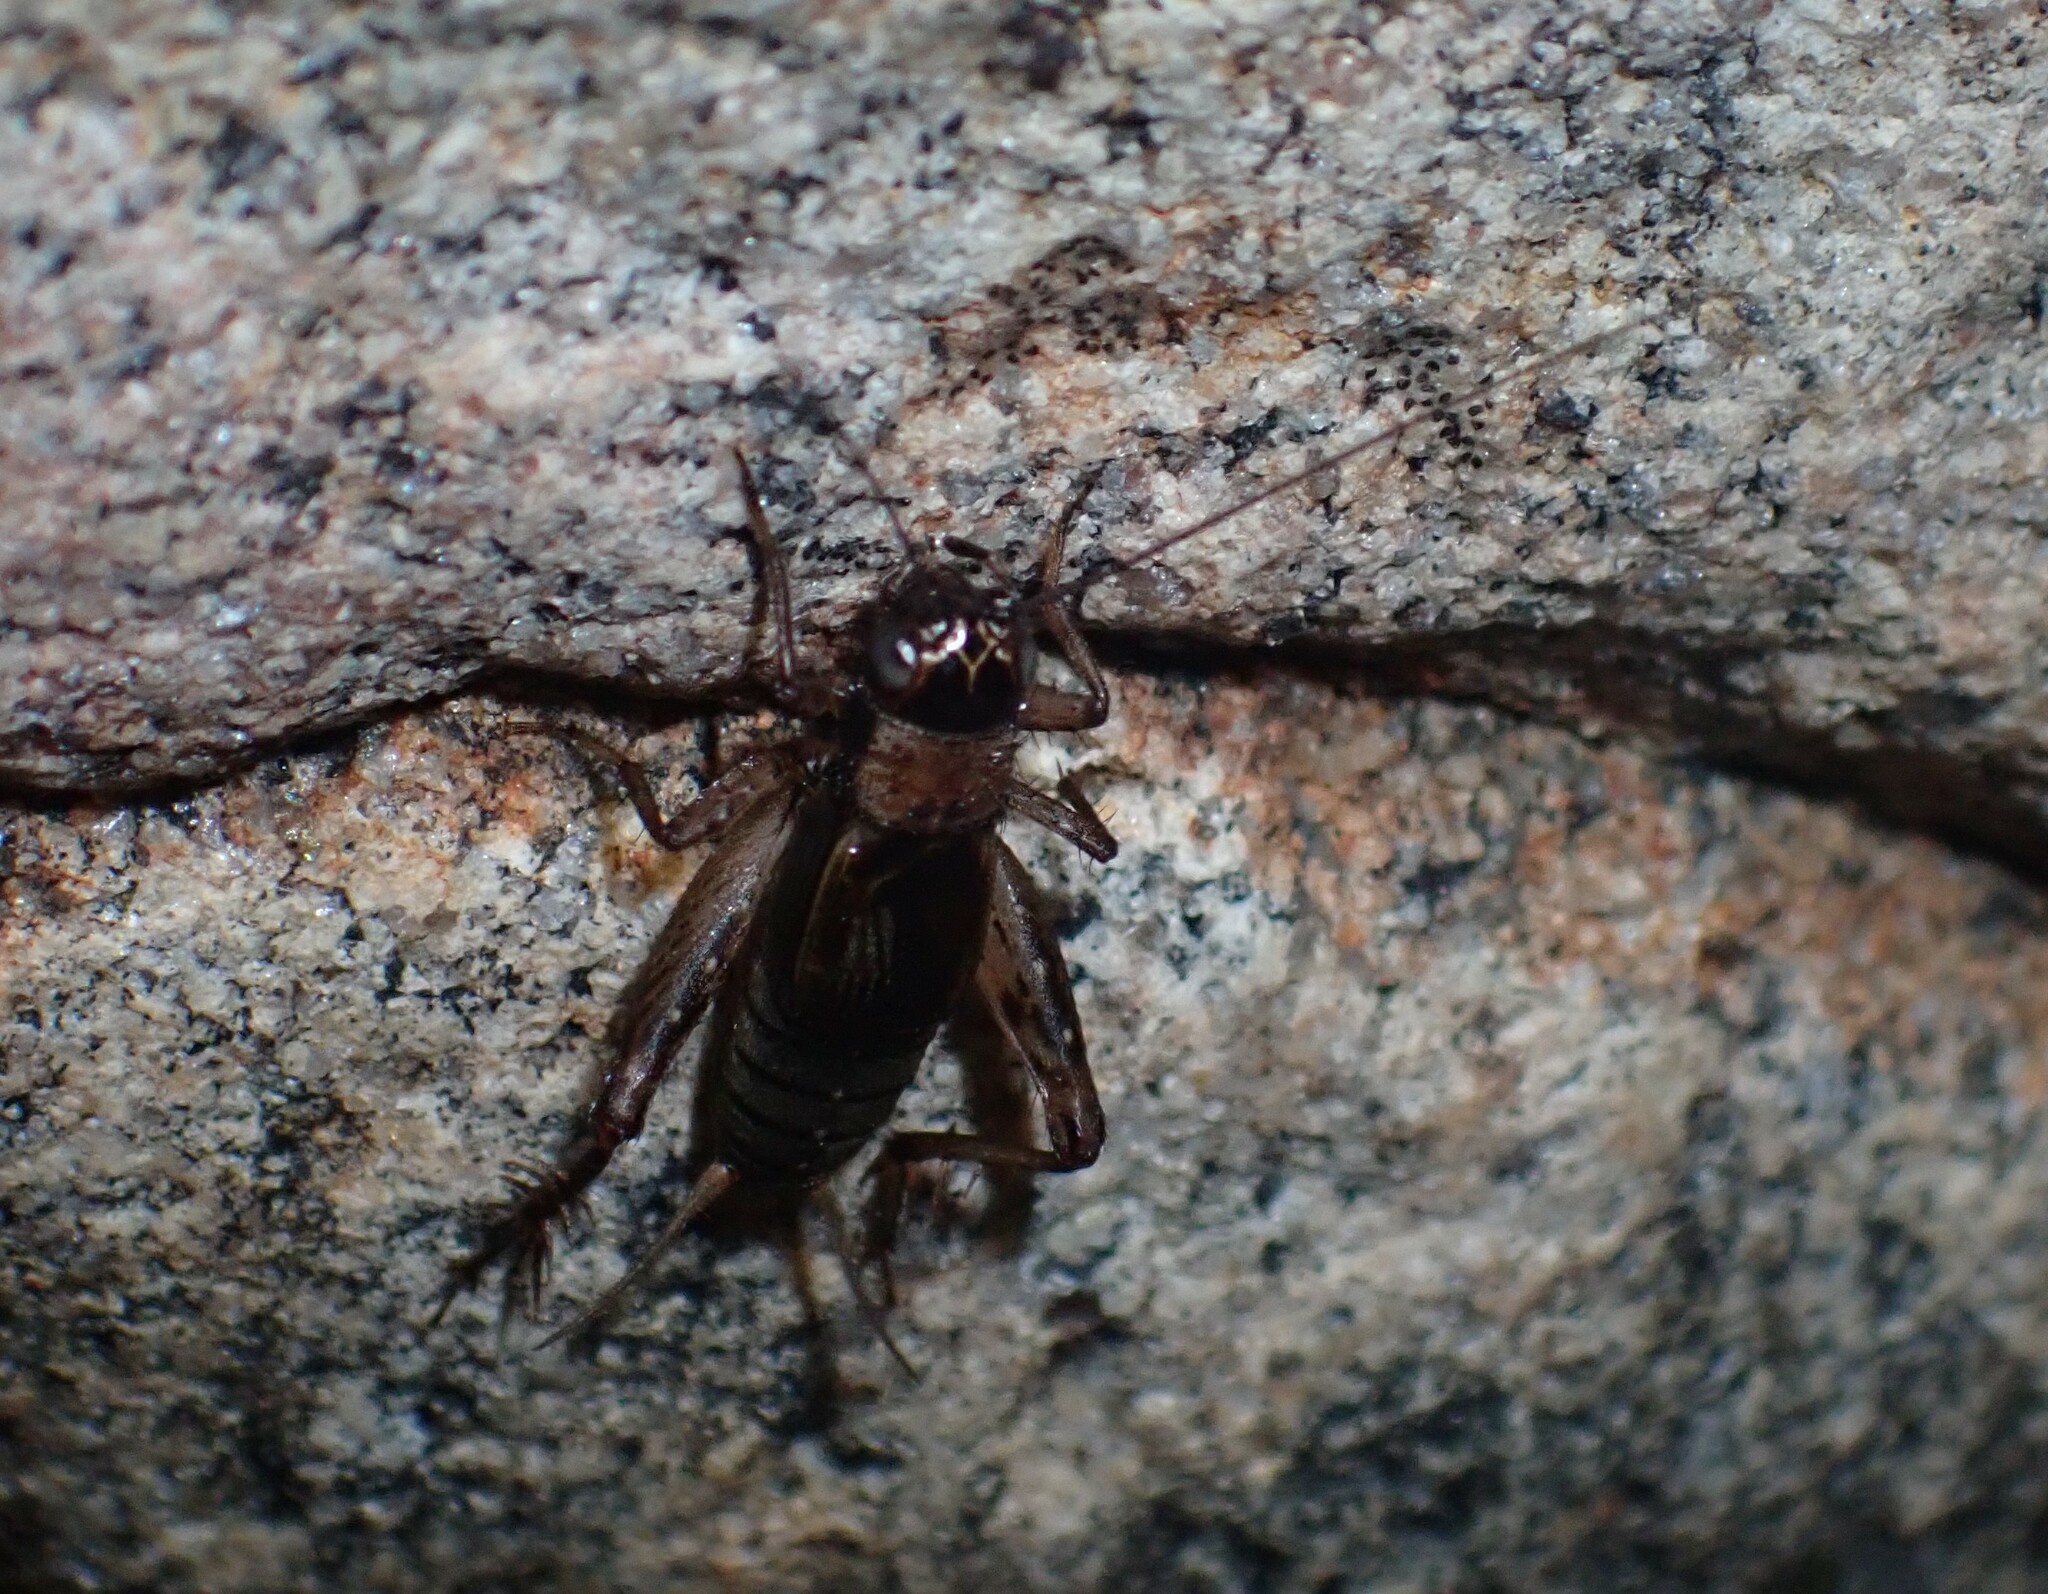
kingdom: Animalia
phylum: Arthropoda
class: Insecta
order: Orthoptera
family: Trigonidiidae
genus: Nemobius
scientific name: Nemobius sylvestris
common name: Wood-cricket
